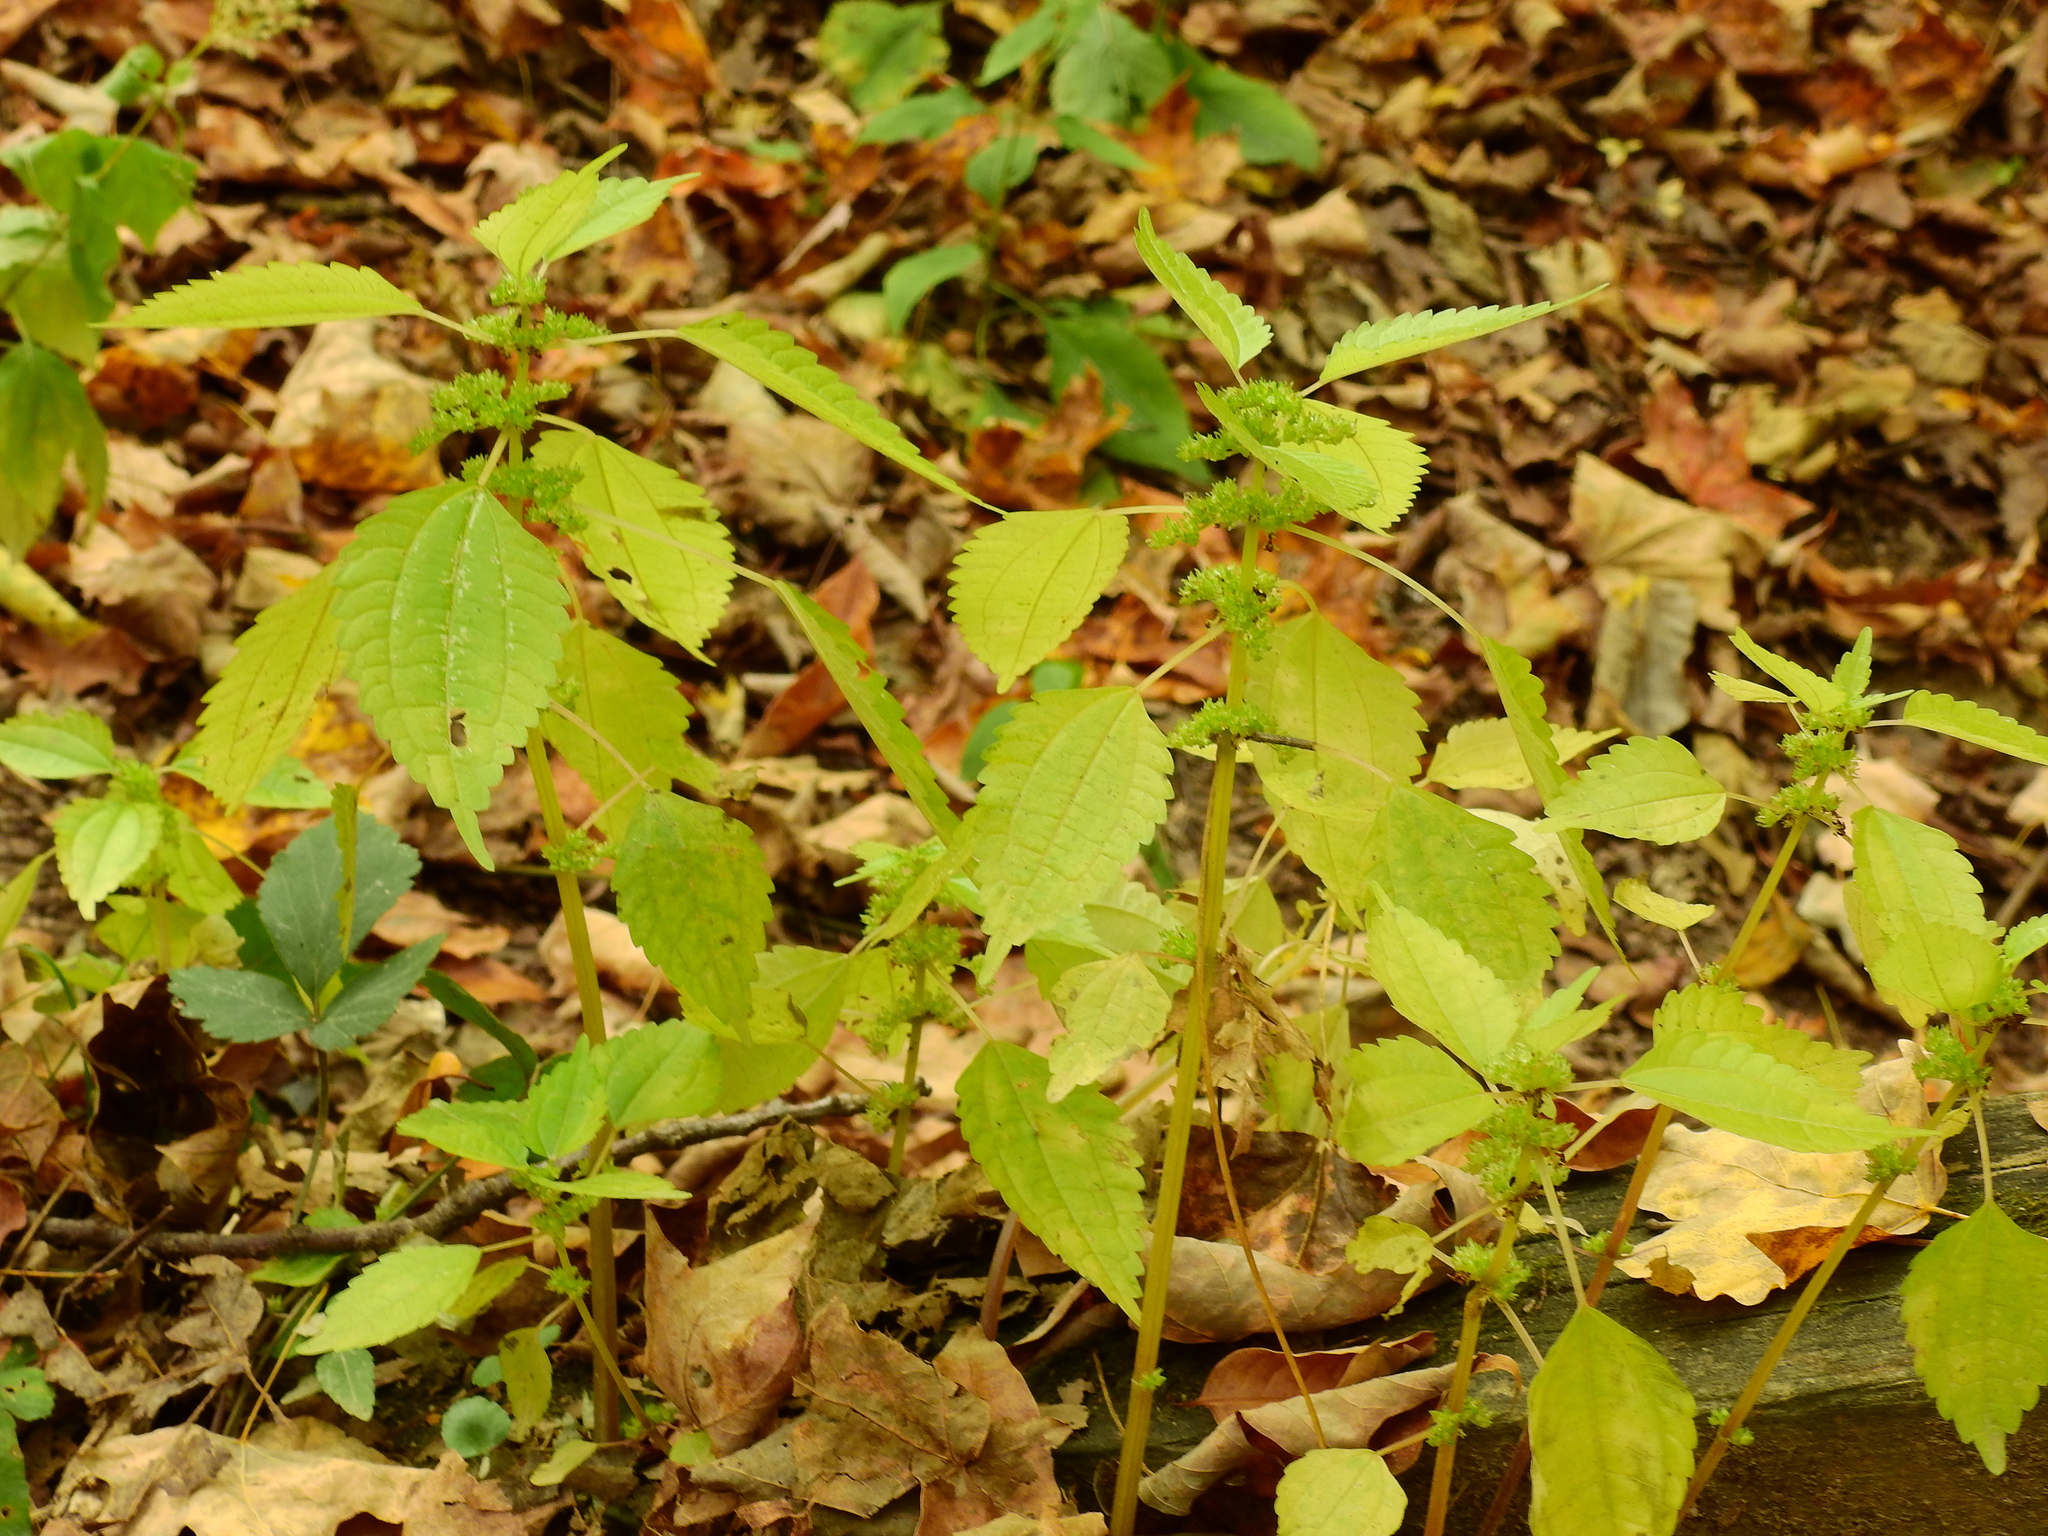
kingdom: Plantae
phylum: Tracheophyta
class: Magnoliopsida
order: Rosales
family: Urticaceae
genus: Pilea
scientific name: Pilea pumila
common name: Clearweed
